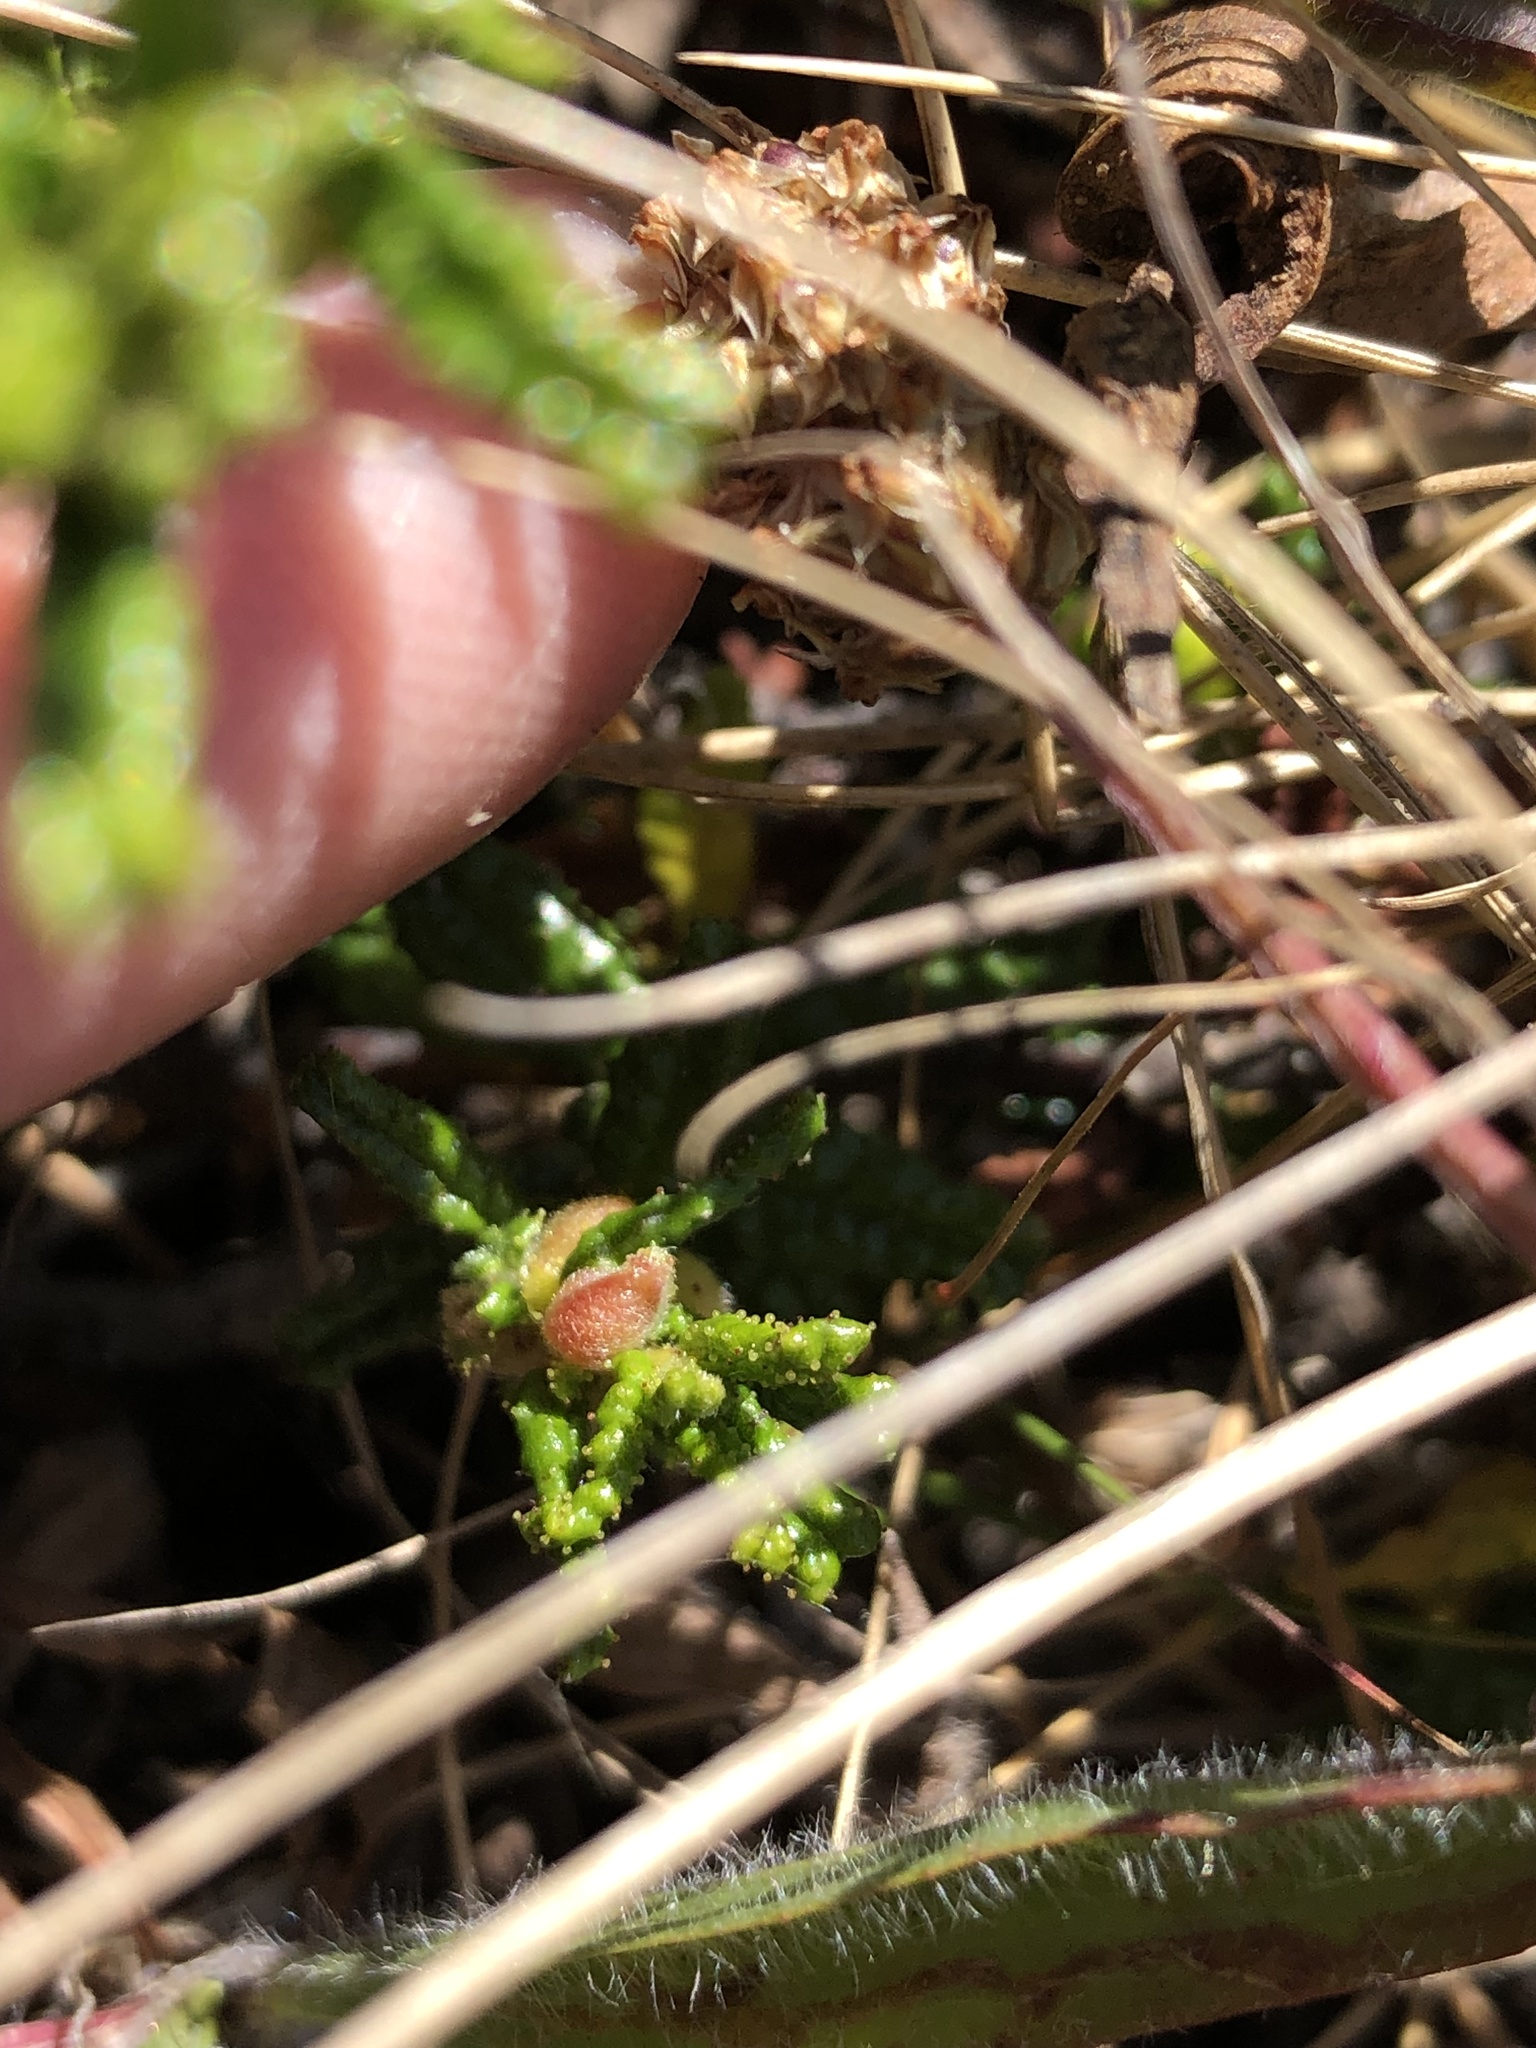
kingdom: Plantae
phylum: Tracheophyta
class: Magnoliopsida
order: Rosales
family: Rhamnaceae
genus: Ceanothus
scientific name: Ceanothus hearstiorum
